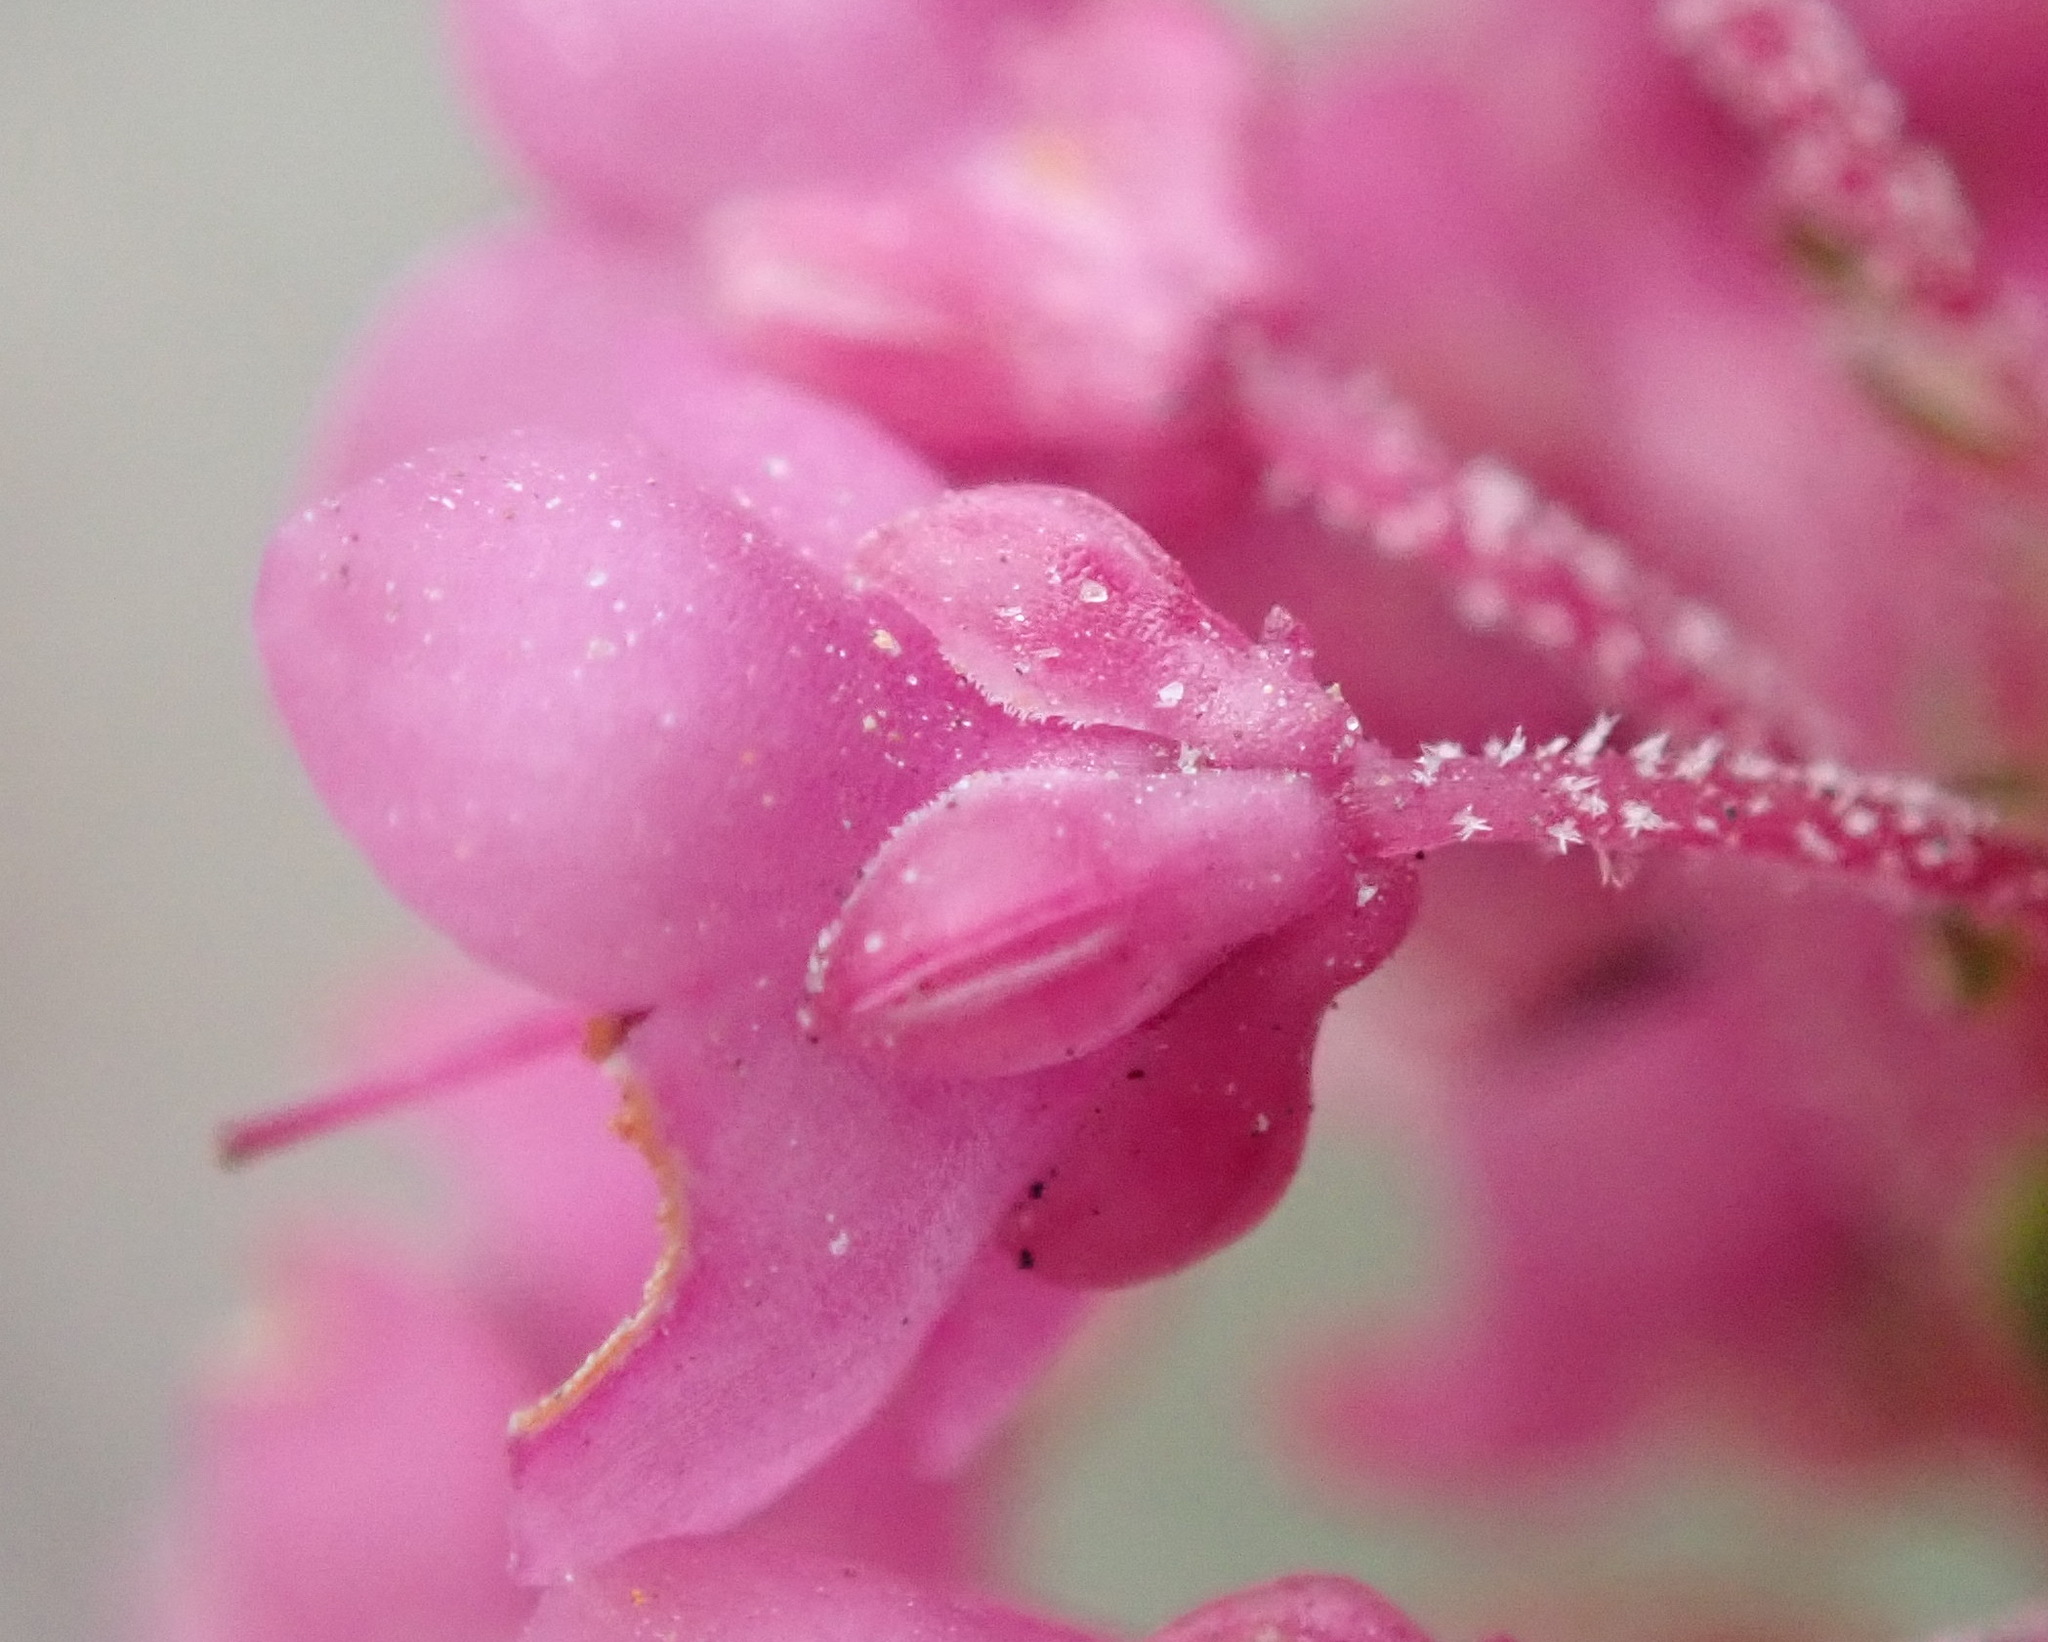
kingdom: Plantae
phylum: Tracheophyta
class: Magnoliopsida
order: Ericales
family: Ericaceae
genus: Erica
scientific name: Erica seriphiifolia
